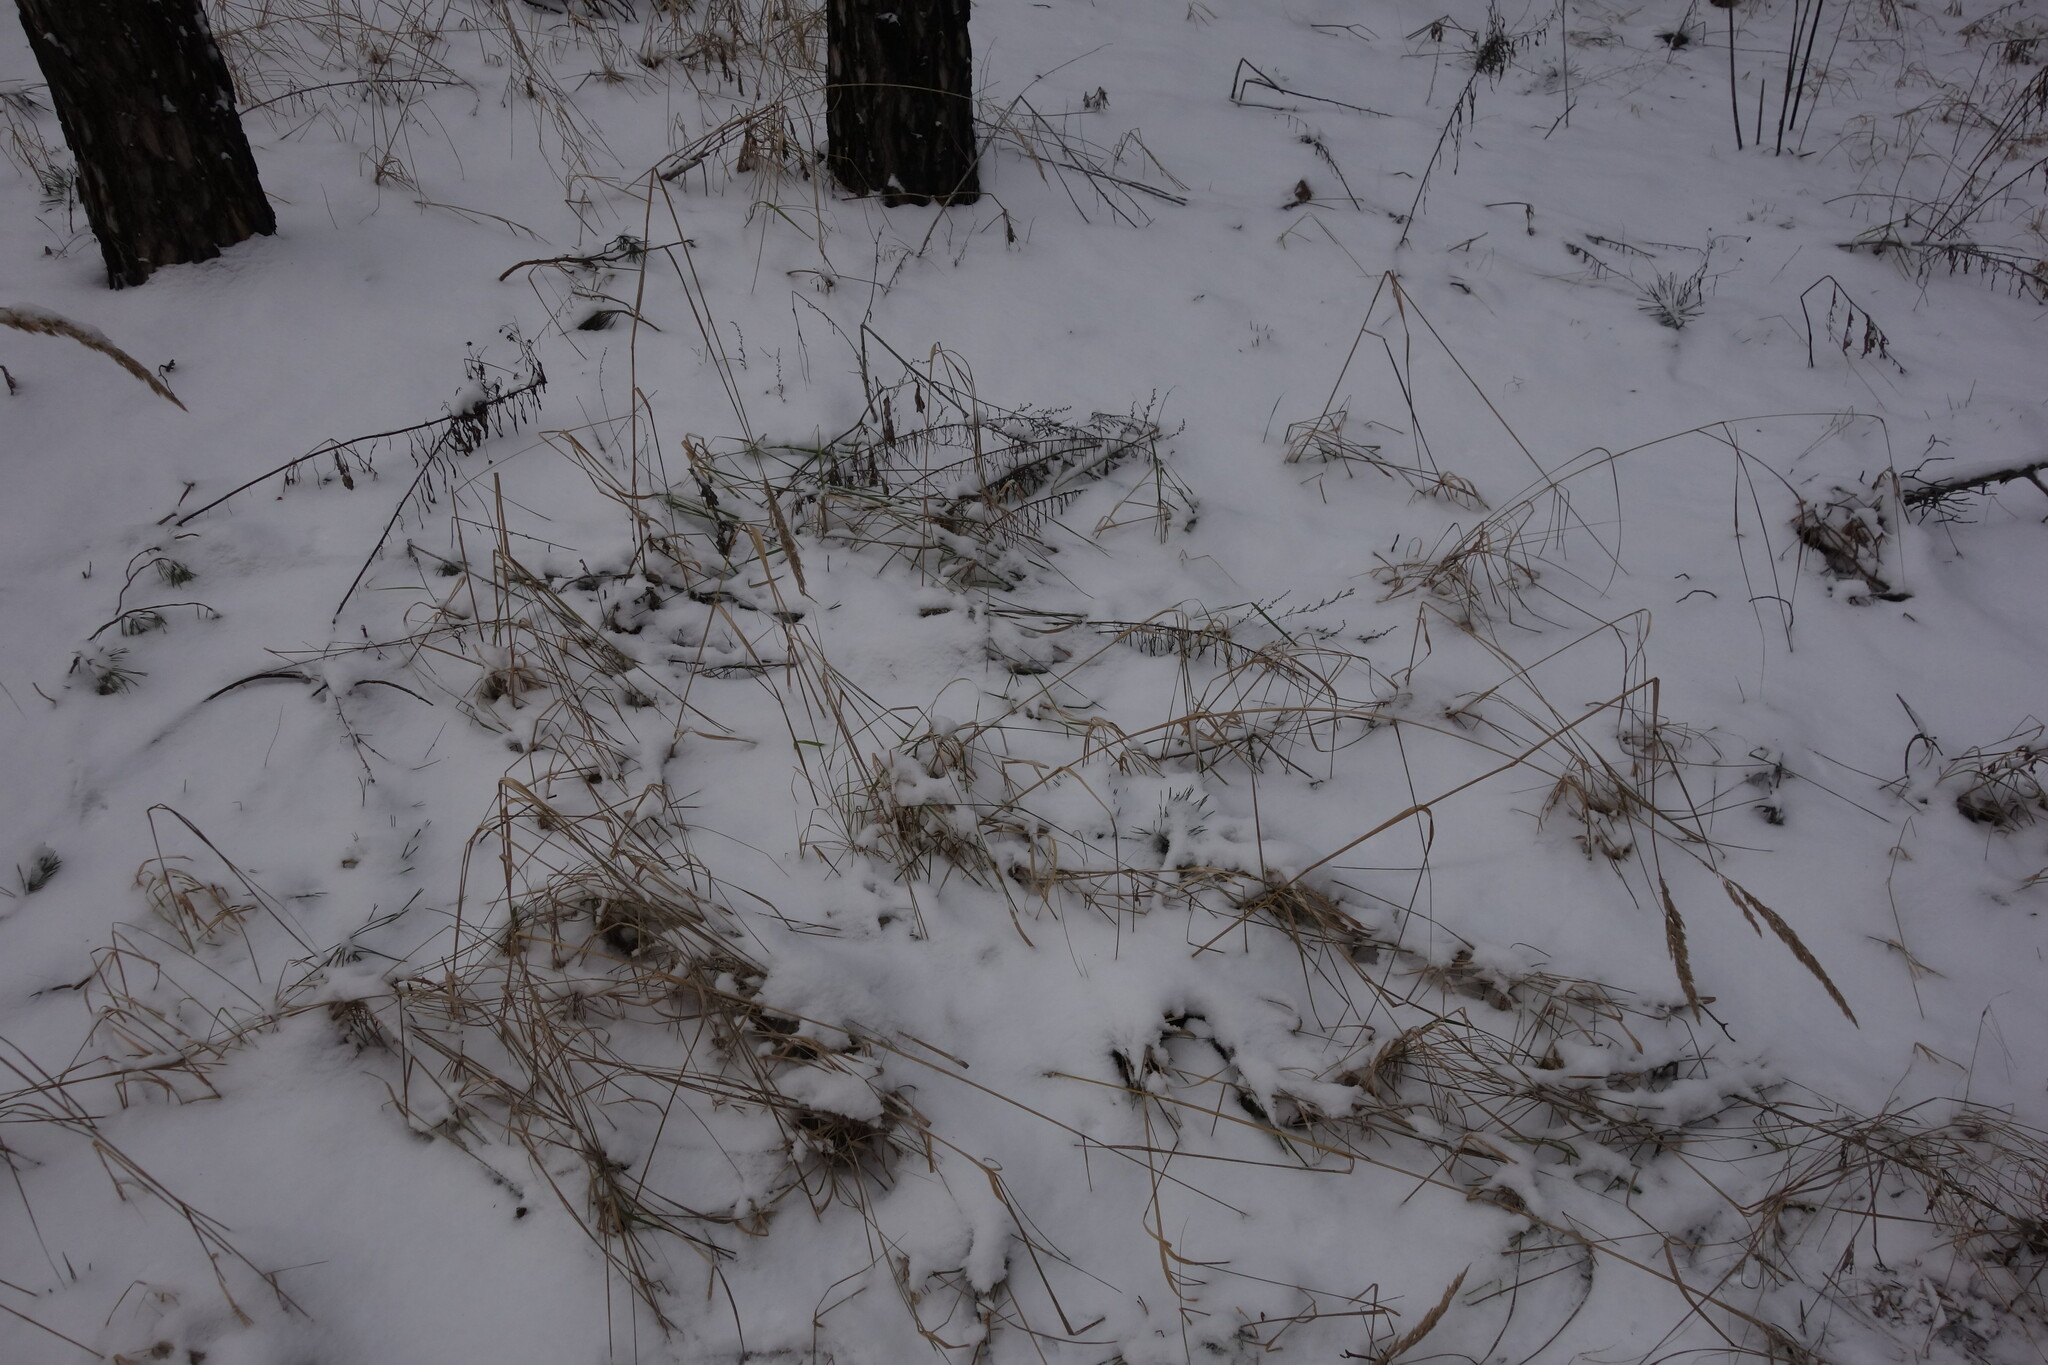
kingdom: Plantae
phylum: Tracheophyta
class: Liliopsida
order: Poales
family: Poaceae
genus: Calamagrostis
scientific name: Calamagrostis epigejos
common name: Wood small-reed
